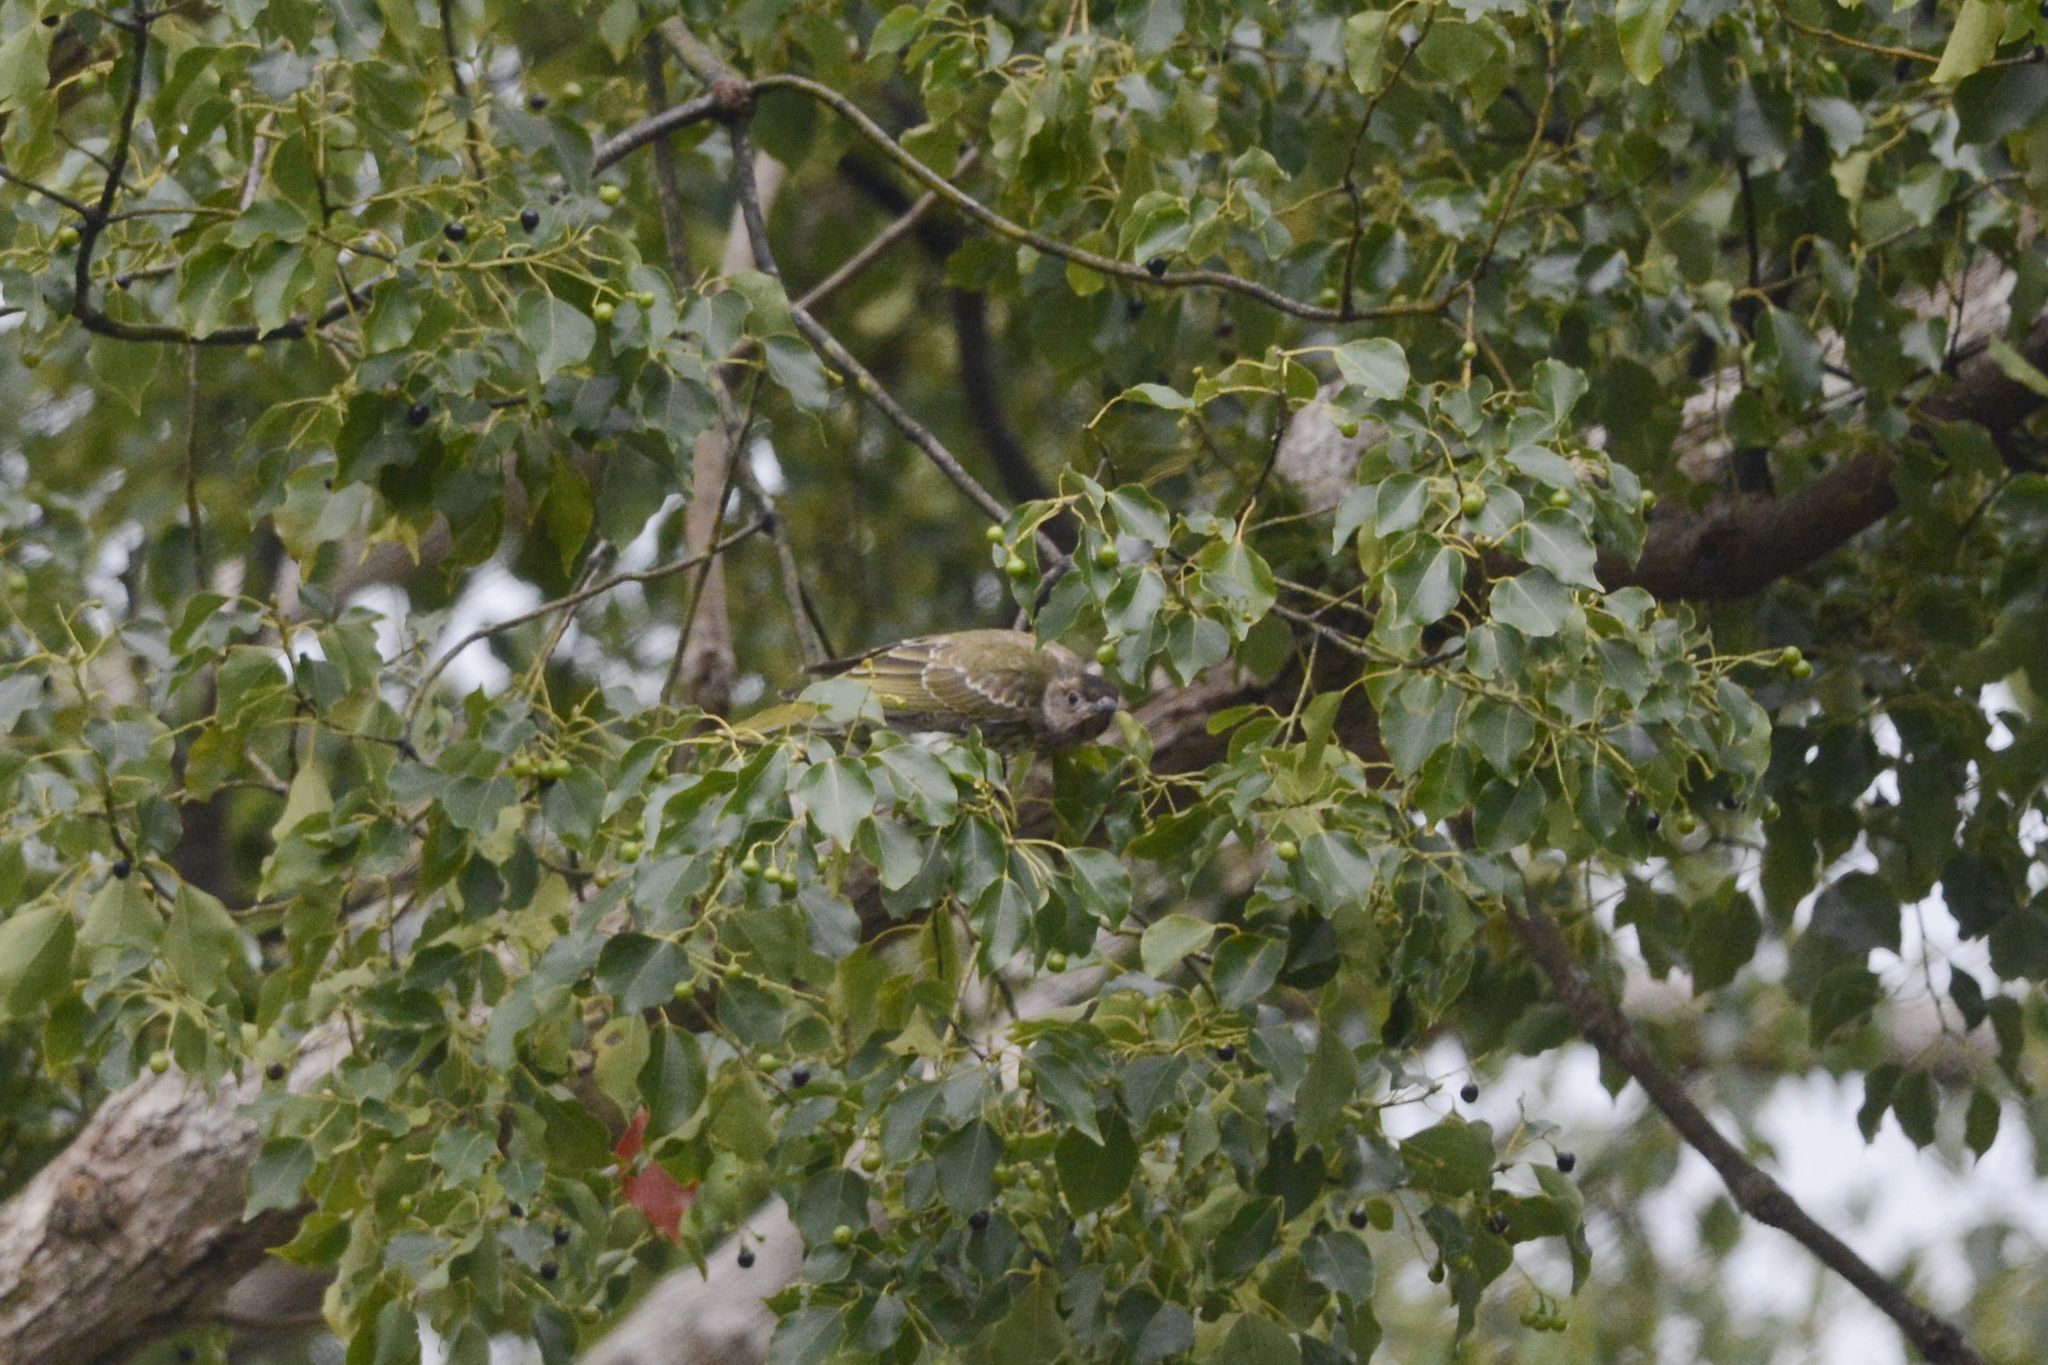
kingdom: Animalia
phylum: Chordata
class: Aves
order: Passeriformes
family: Oriolidae
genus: Sphecotheres
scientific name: Sphecotheres vieilloti
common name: Australasian figbird
